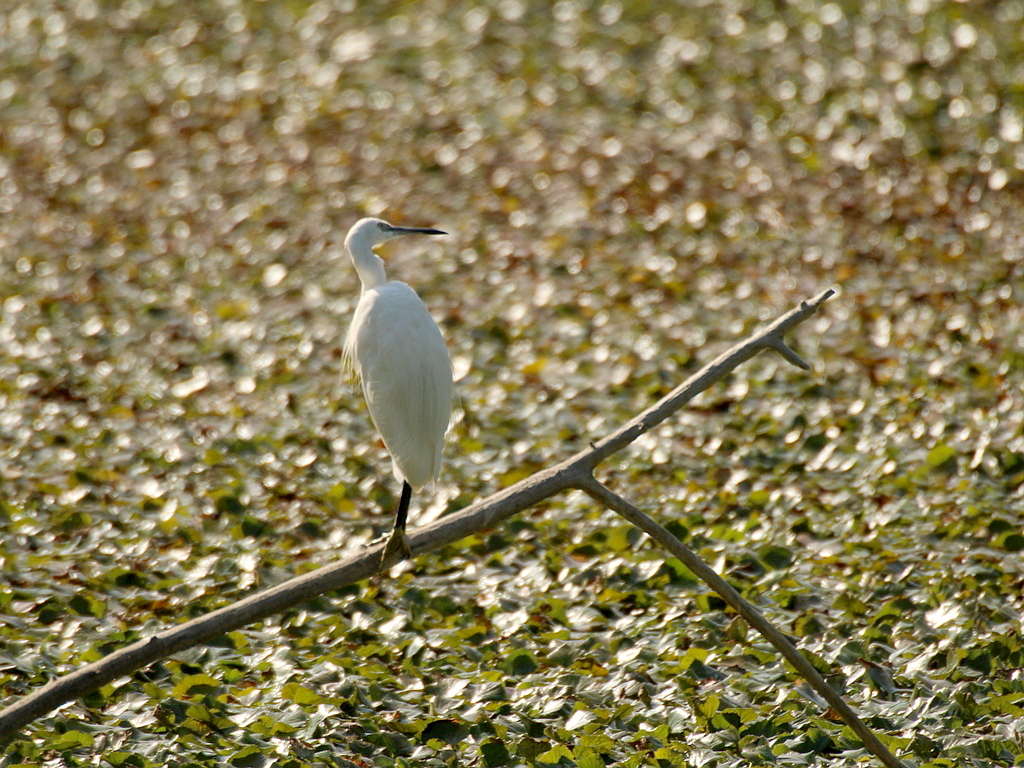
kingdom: Animalia
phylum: Chordata
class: Aves
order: Pelecaniformes
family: Ardeidae
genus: Egretta
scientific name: Egretta garzetta
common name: Little egret
